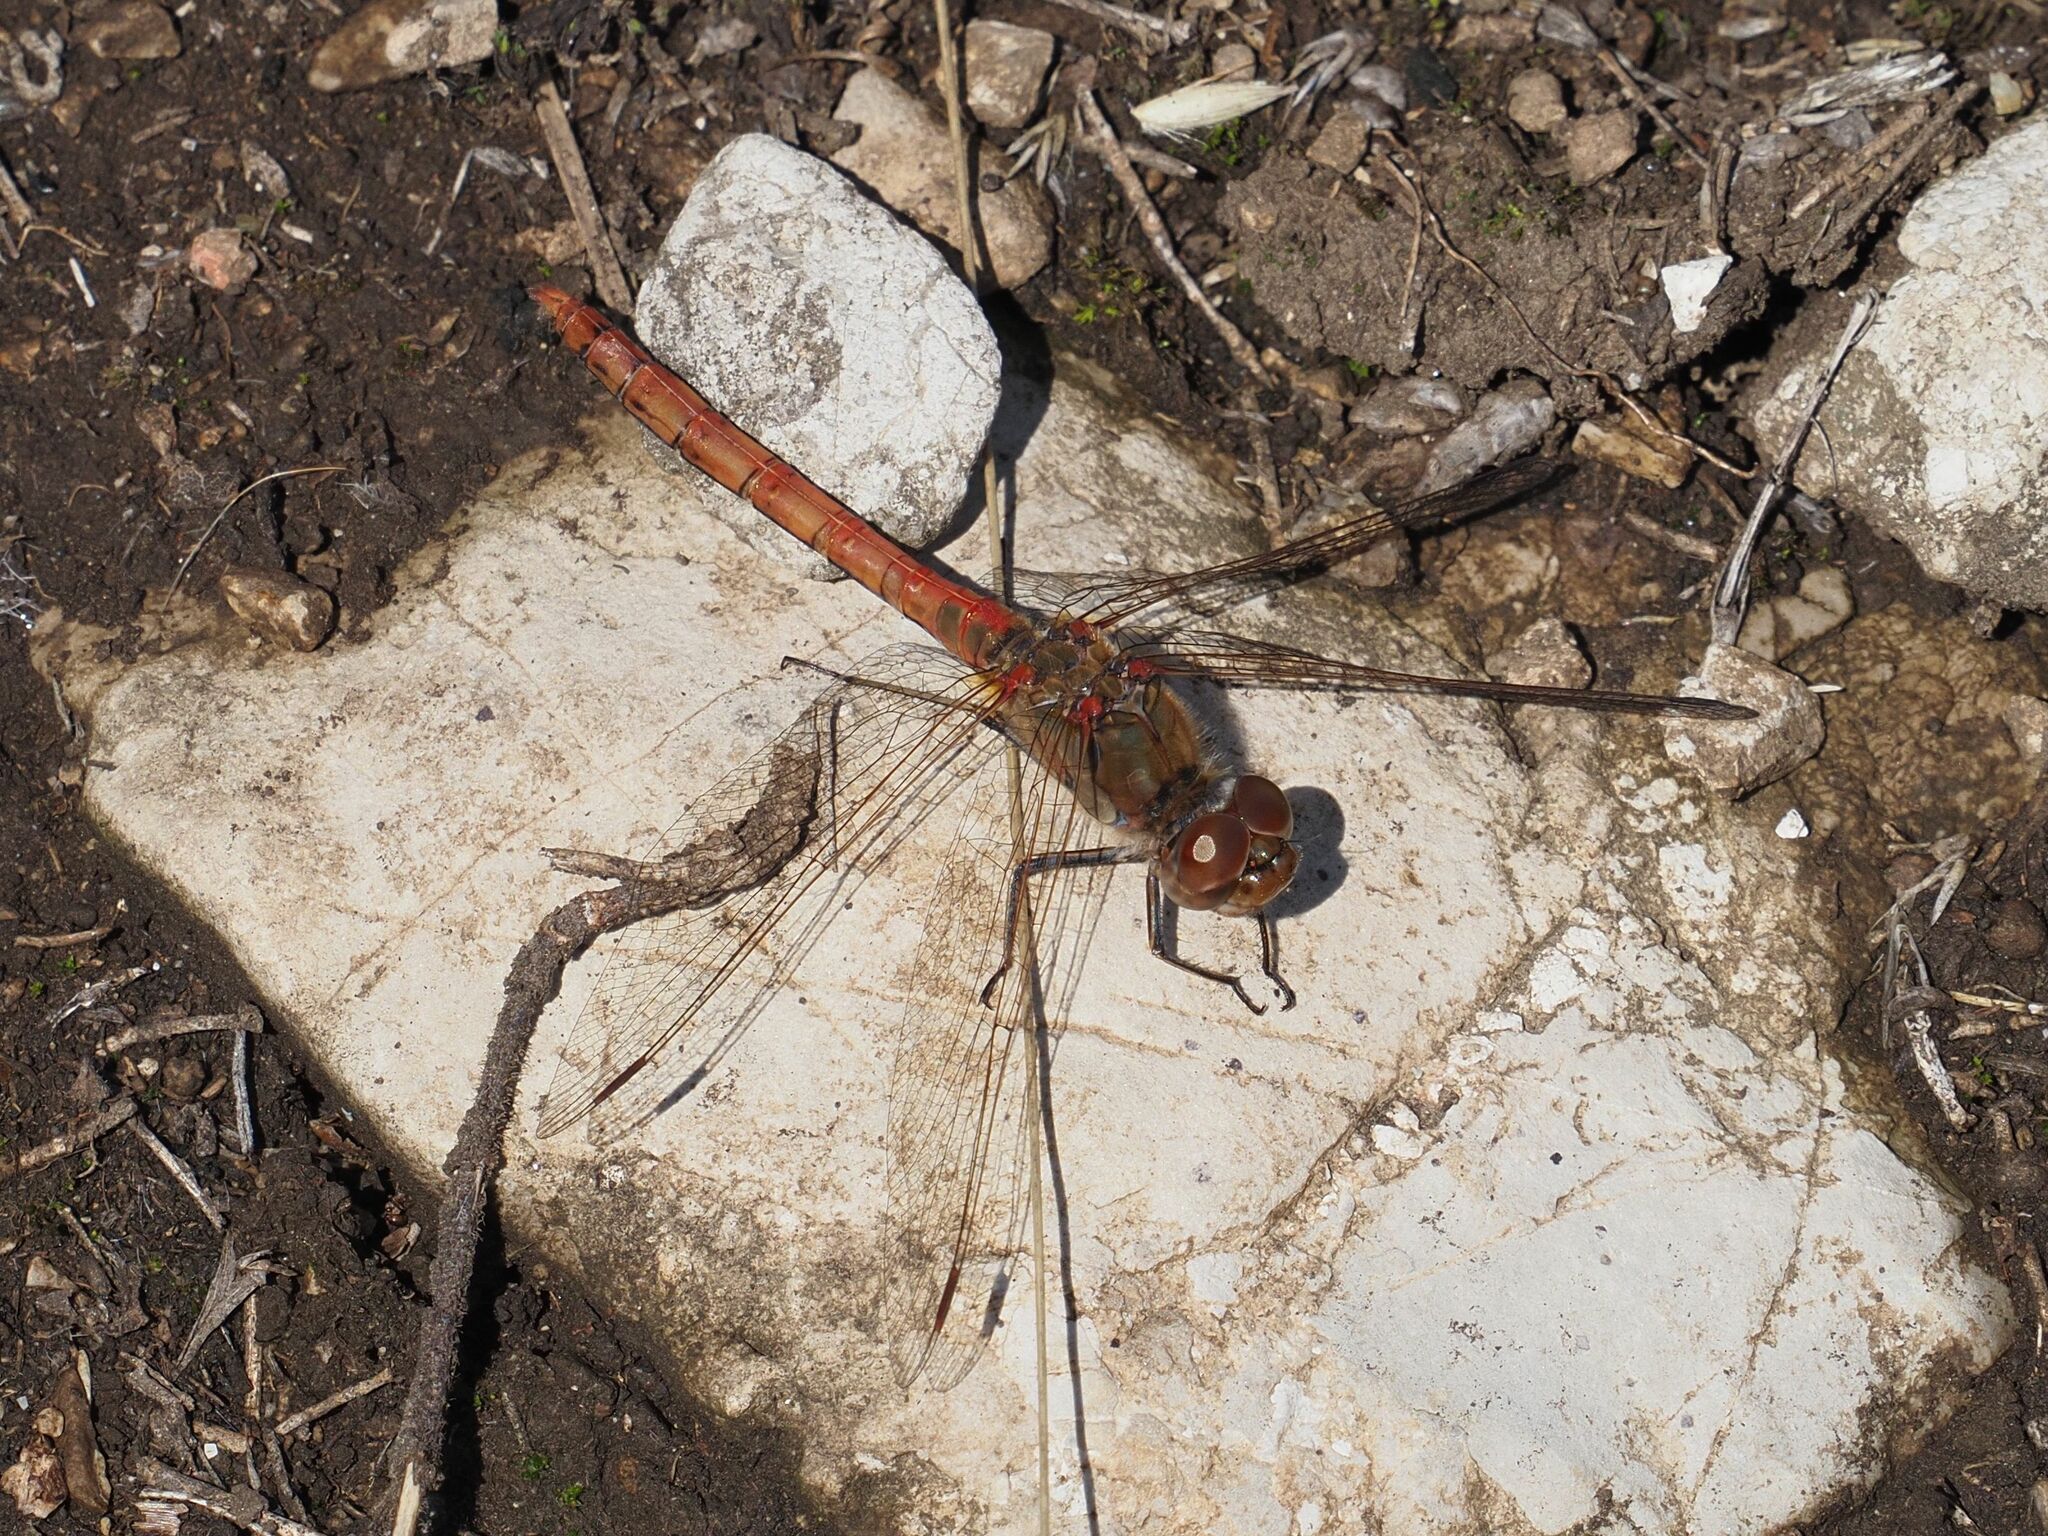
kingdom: Animalia
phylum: Arthropoda
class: Insecta
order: Odonata
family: Libellulidae
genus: Sympetrum
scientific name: Sympetrum striolatum
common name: Common darter
